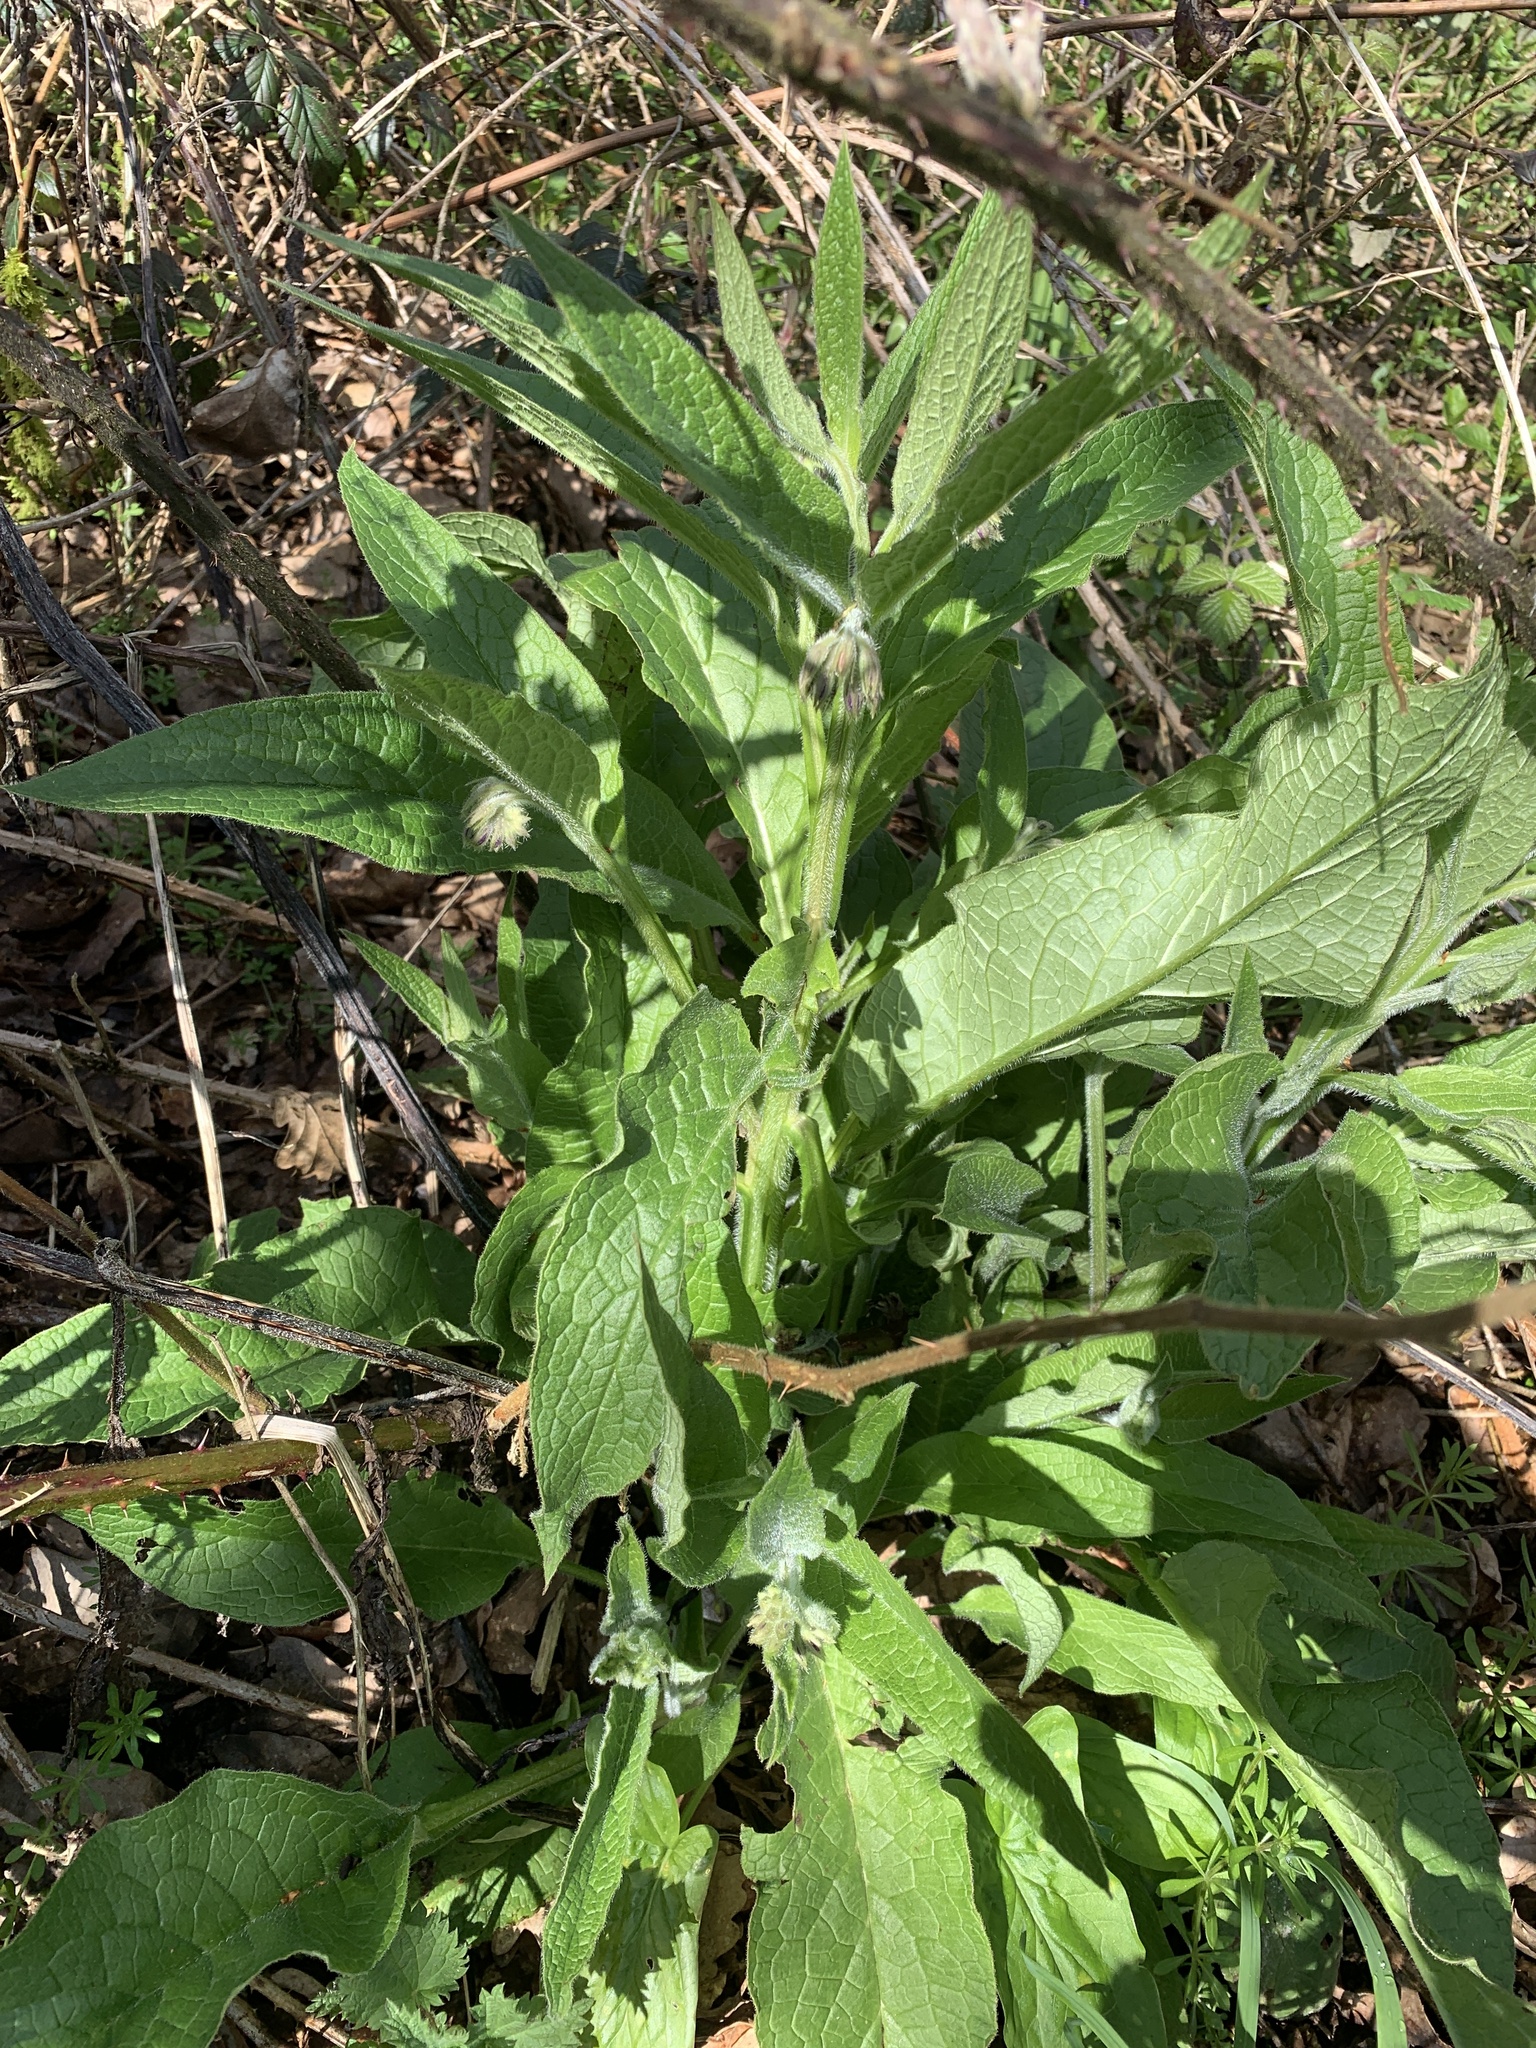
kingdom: Plantae
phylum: Tracheophyta
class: Magnoliopsida
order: Boraginales
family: Boraginaceae
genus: Symphytum
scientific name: Symphytum officinale
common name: Common comfrey
